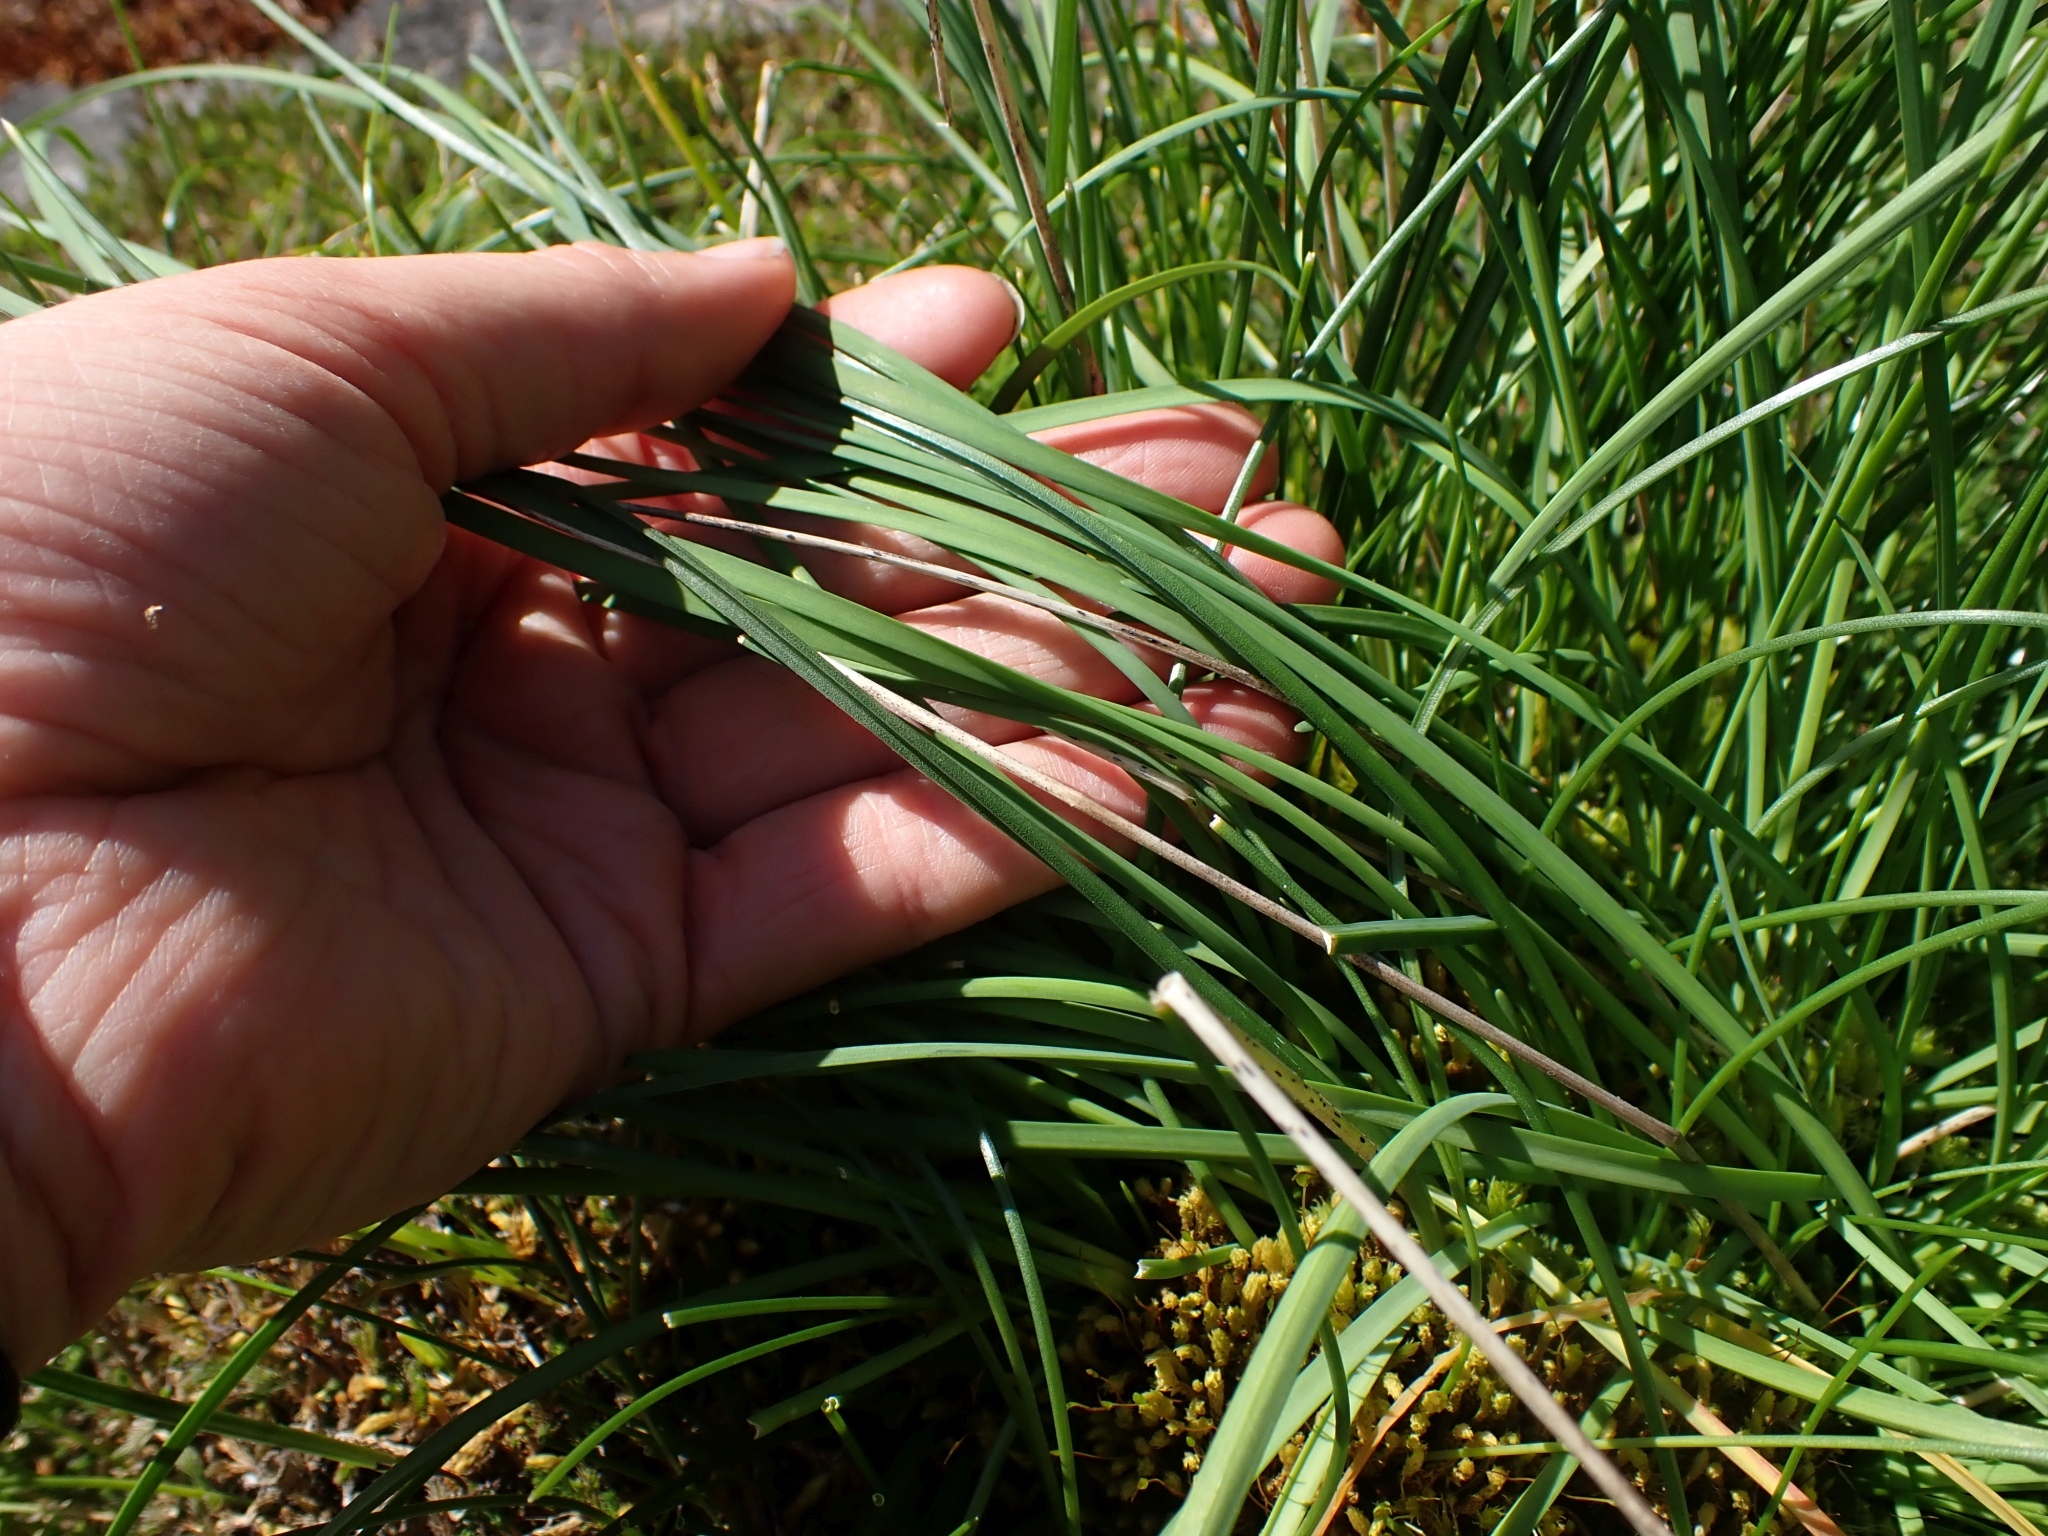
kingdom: Plantae
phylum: Tracheophyta
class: Liliopsida
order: Asparagales
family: Amaryllidaceae
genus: Allium
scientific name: Allium cernuum
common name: Nodding onion
